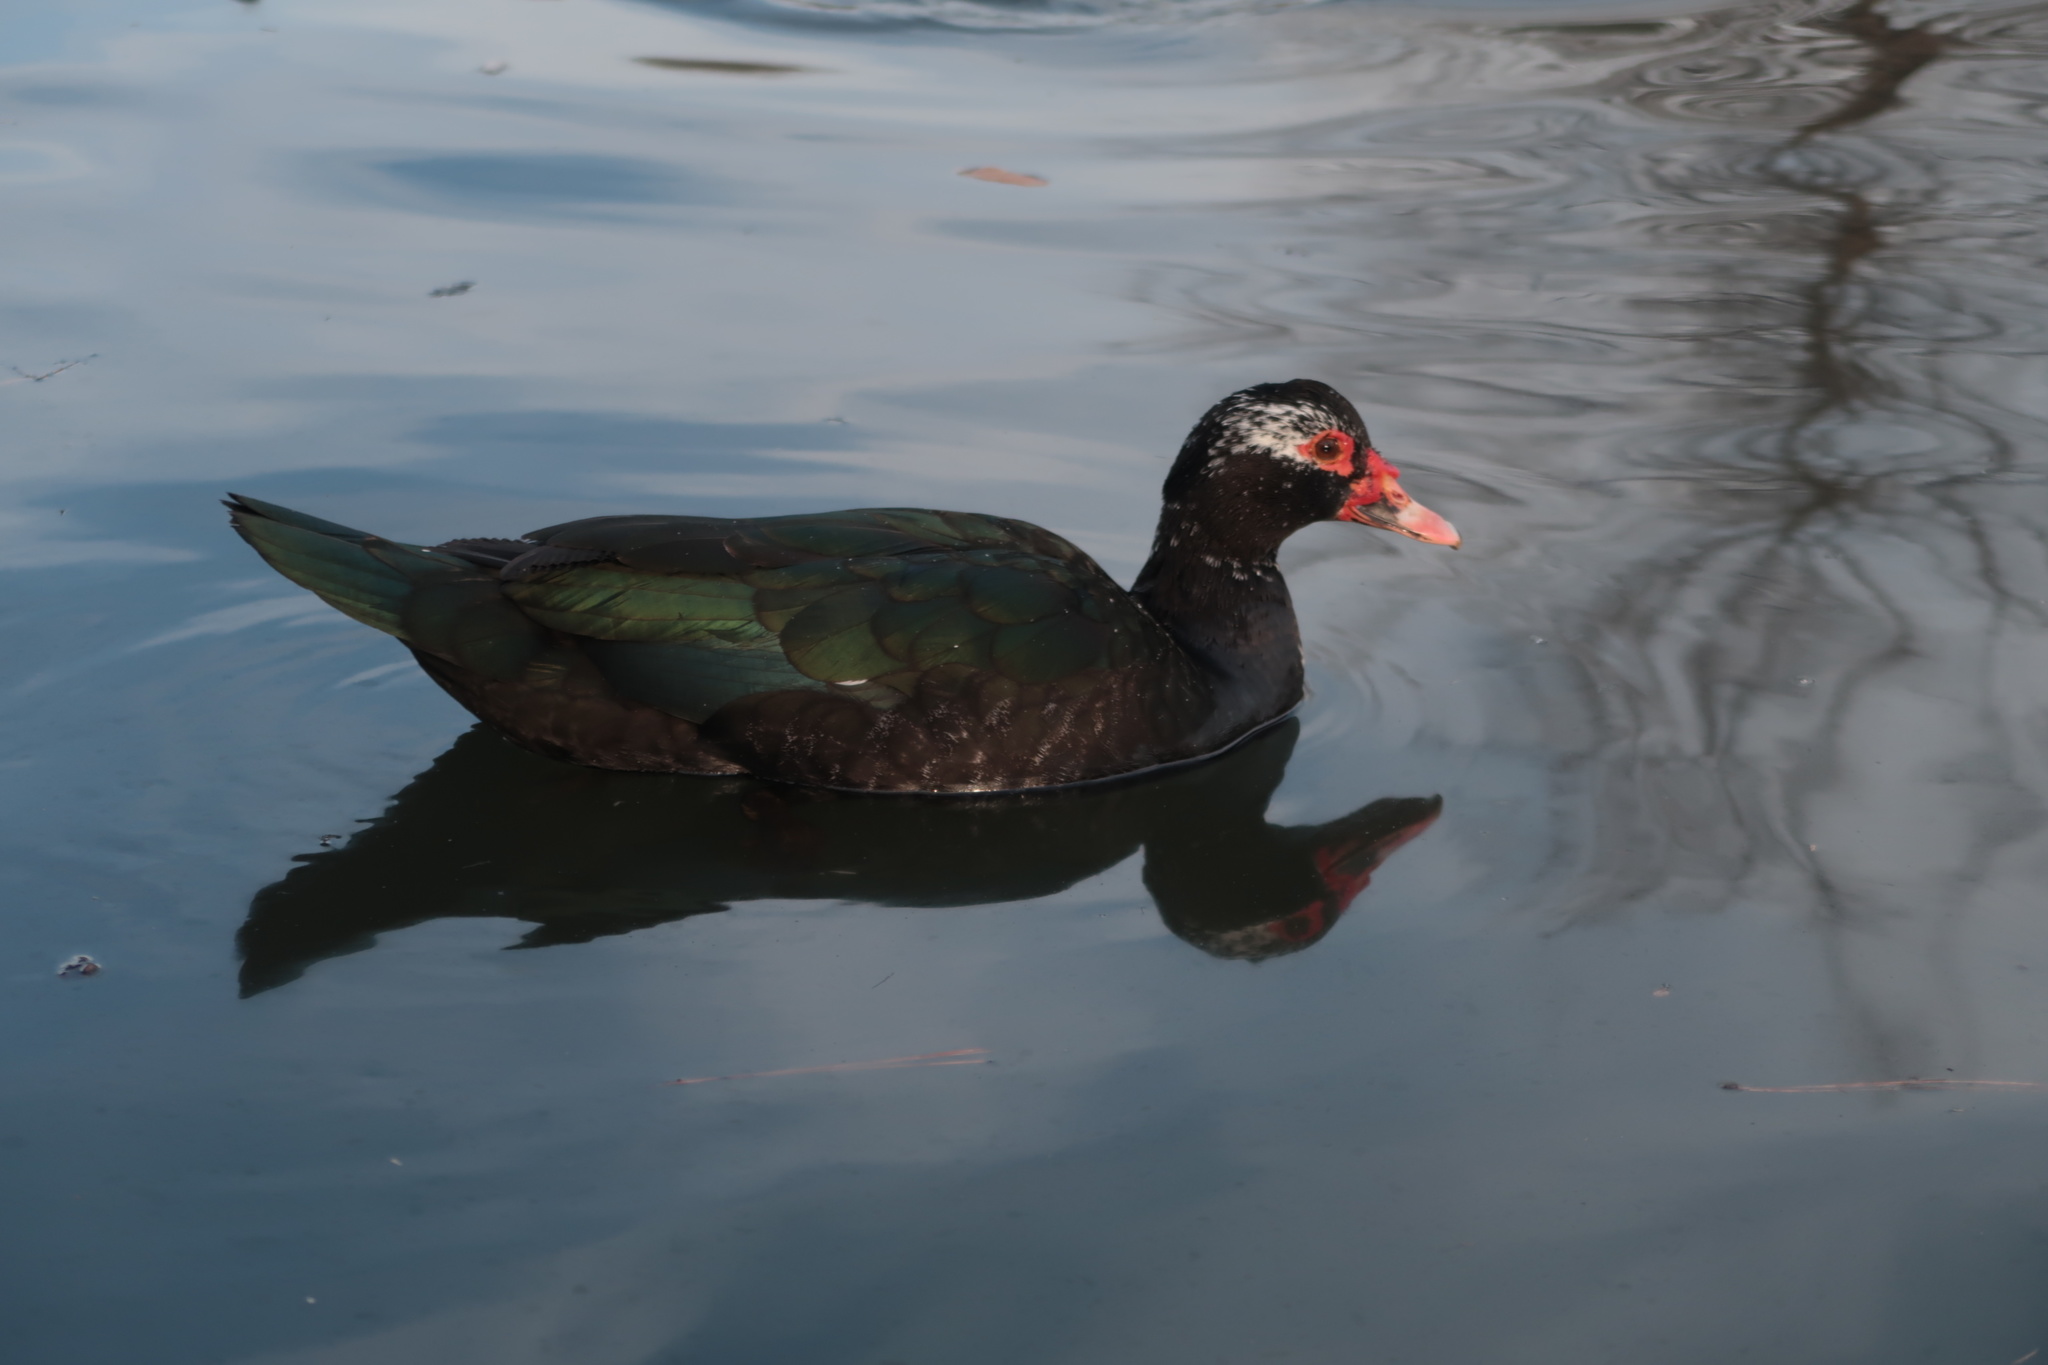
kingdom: Animalia
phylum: Chordata
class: Aves
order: Anseriformes
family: Anatidae
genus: Cairina
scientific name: Cairina moschata
